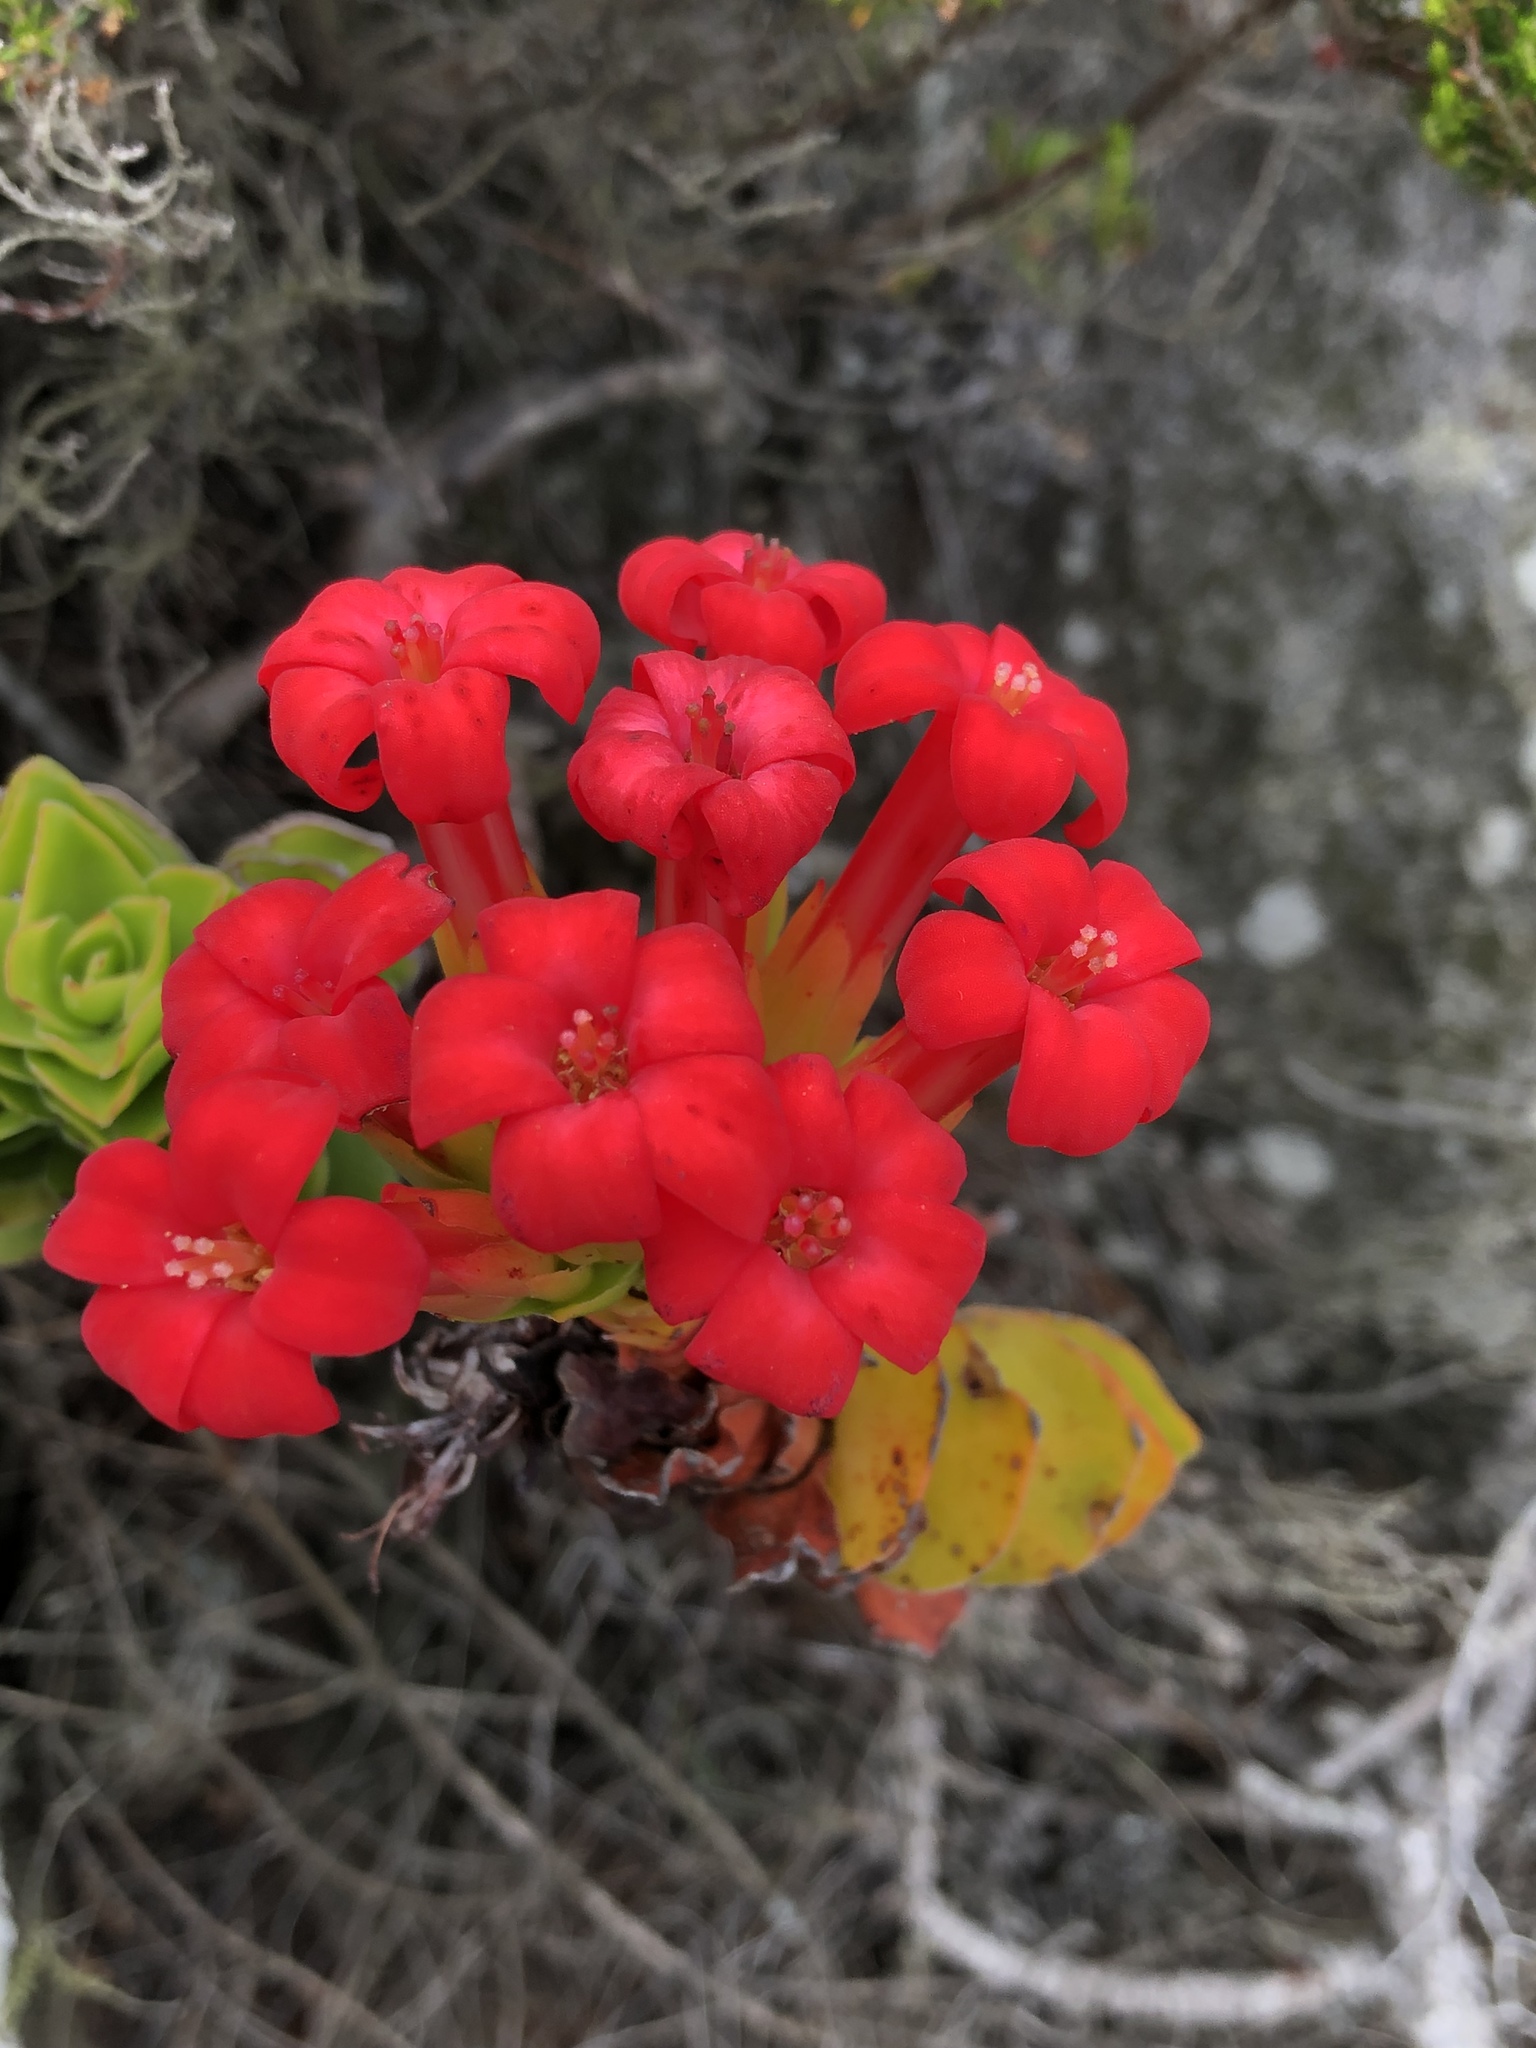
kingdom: Plantae
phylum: Tracheophyta
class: Magnoliopsida
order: Saxifragales
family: Crassulaceae
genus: Crassula
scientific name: Crassula coccinea
